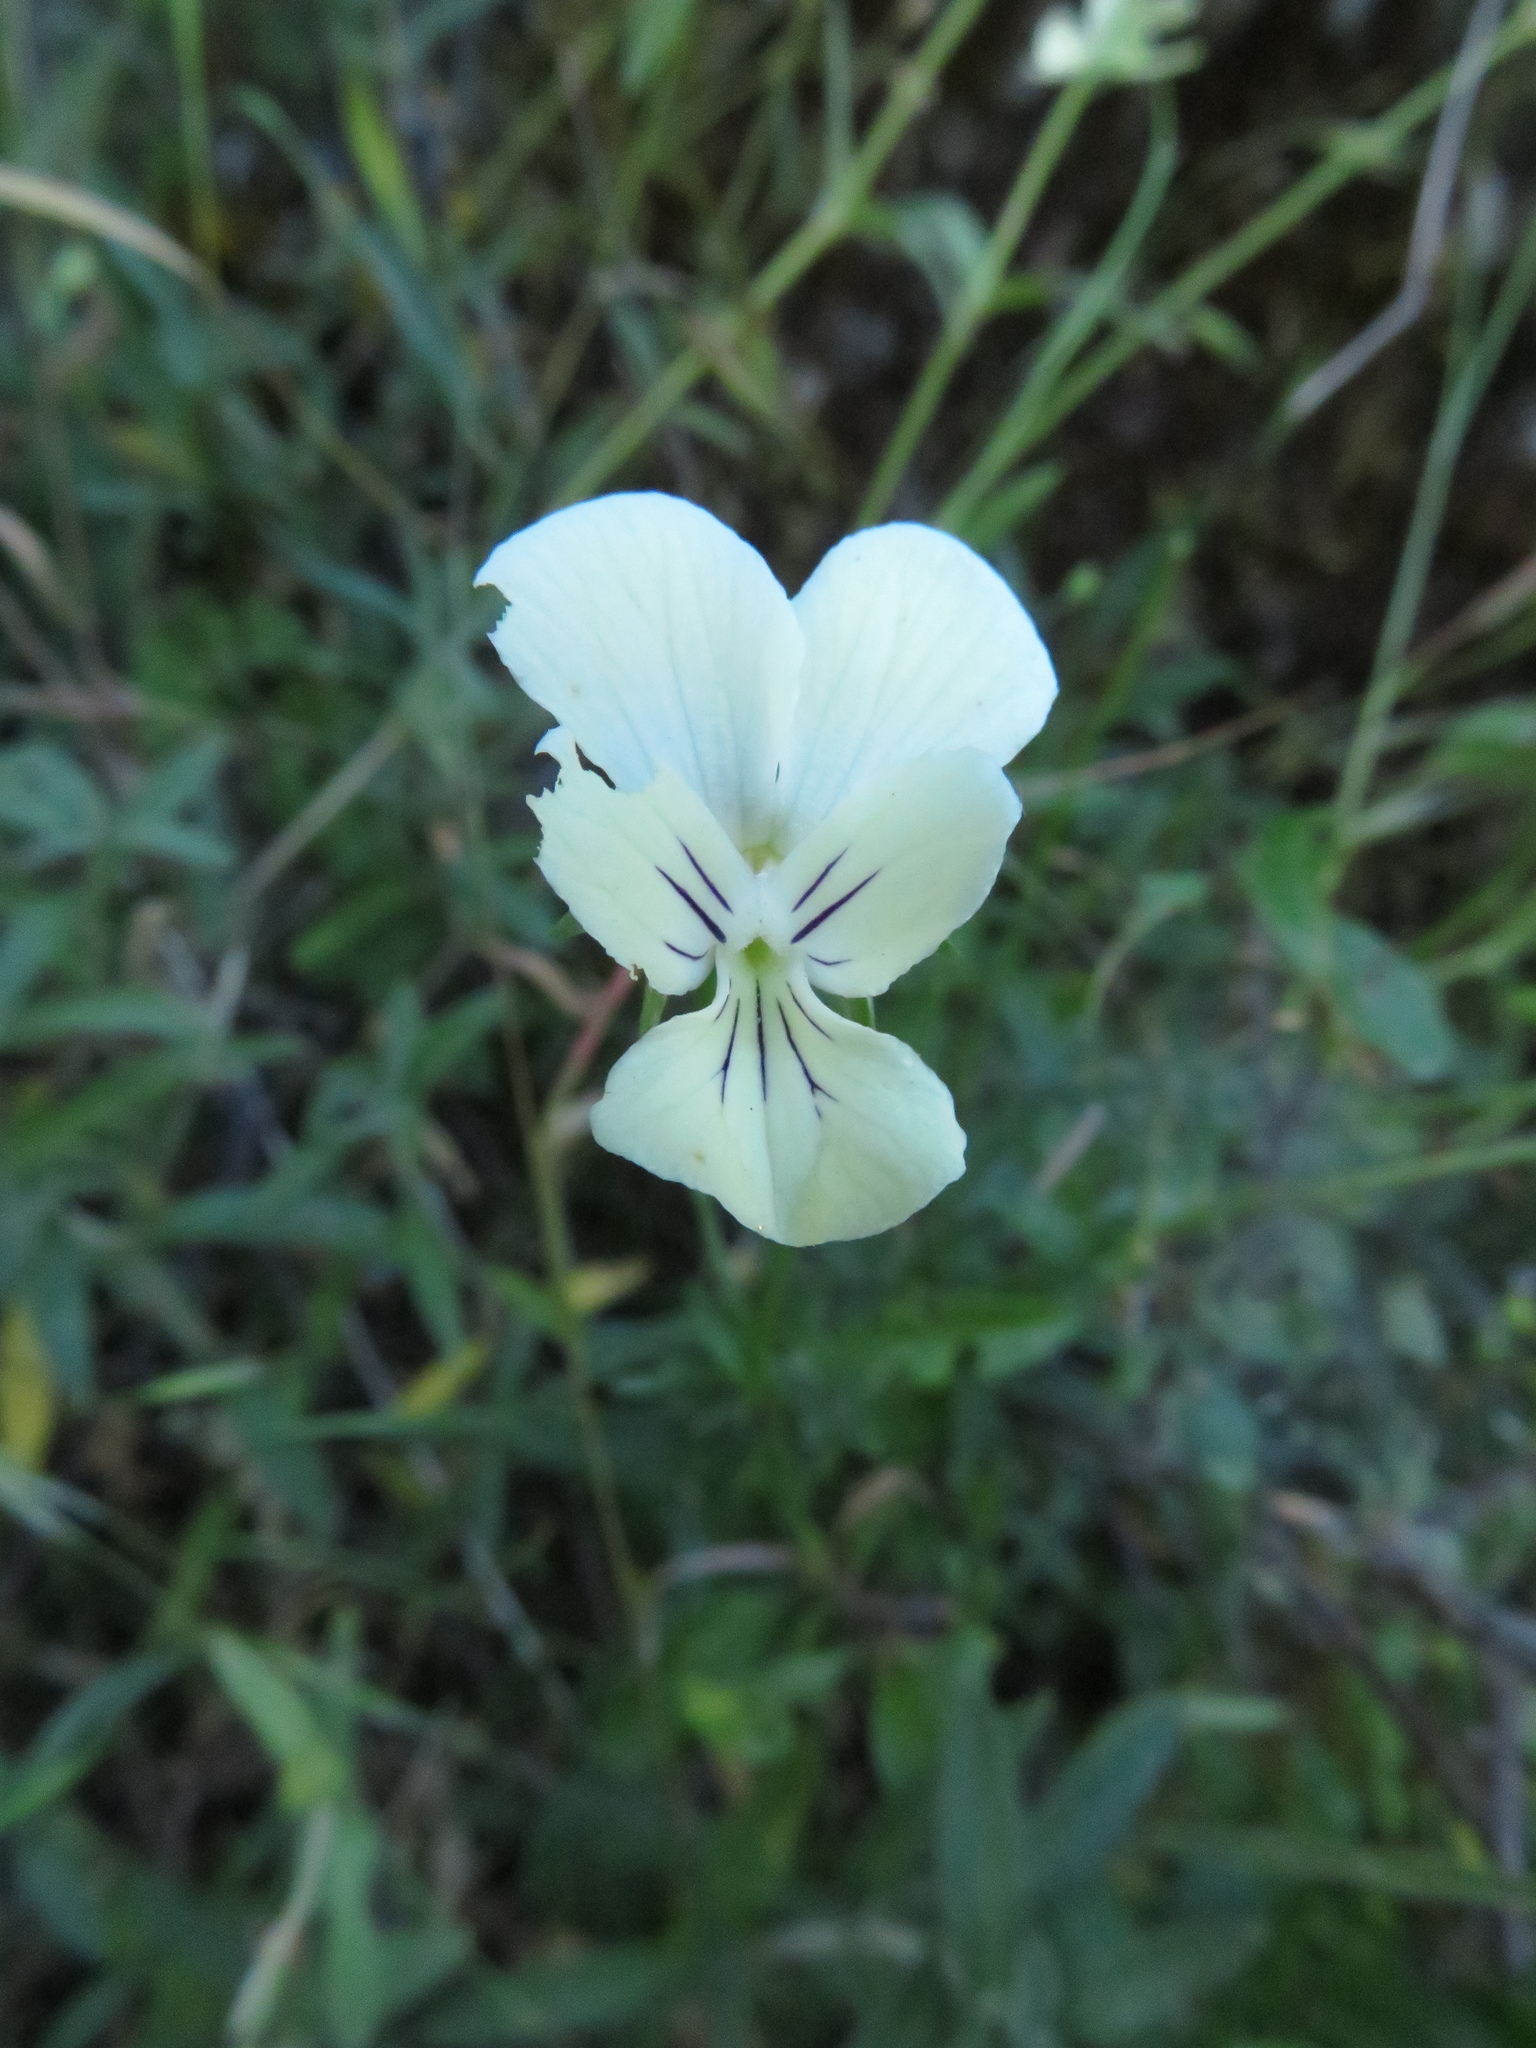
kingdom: Plantae
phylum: Tracheophyta
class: Magnoliopsida
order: Malpighiales
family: Violaceae
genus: Viola
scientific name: Viola etrusca
